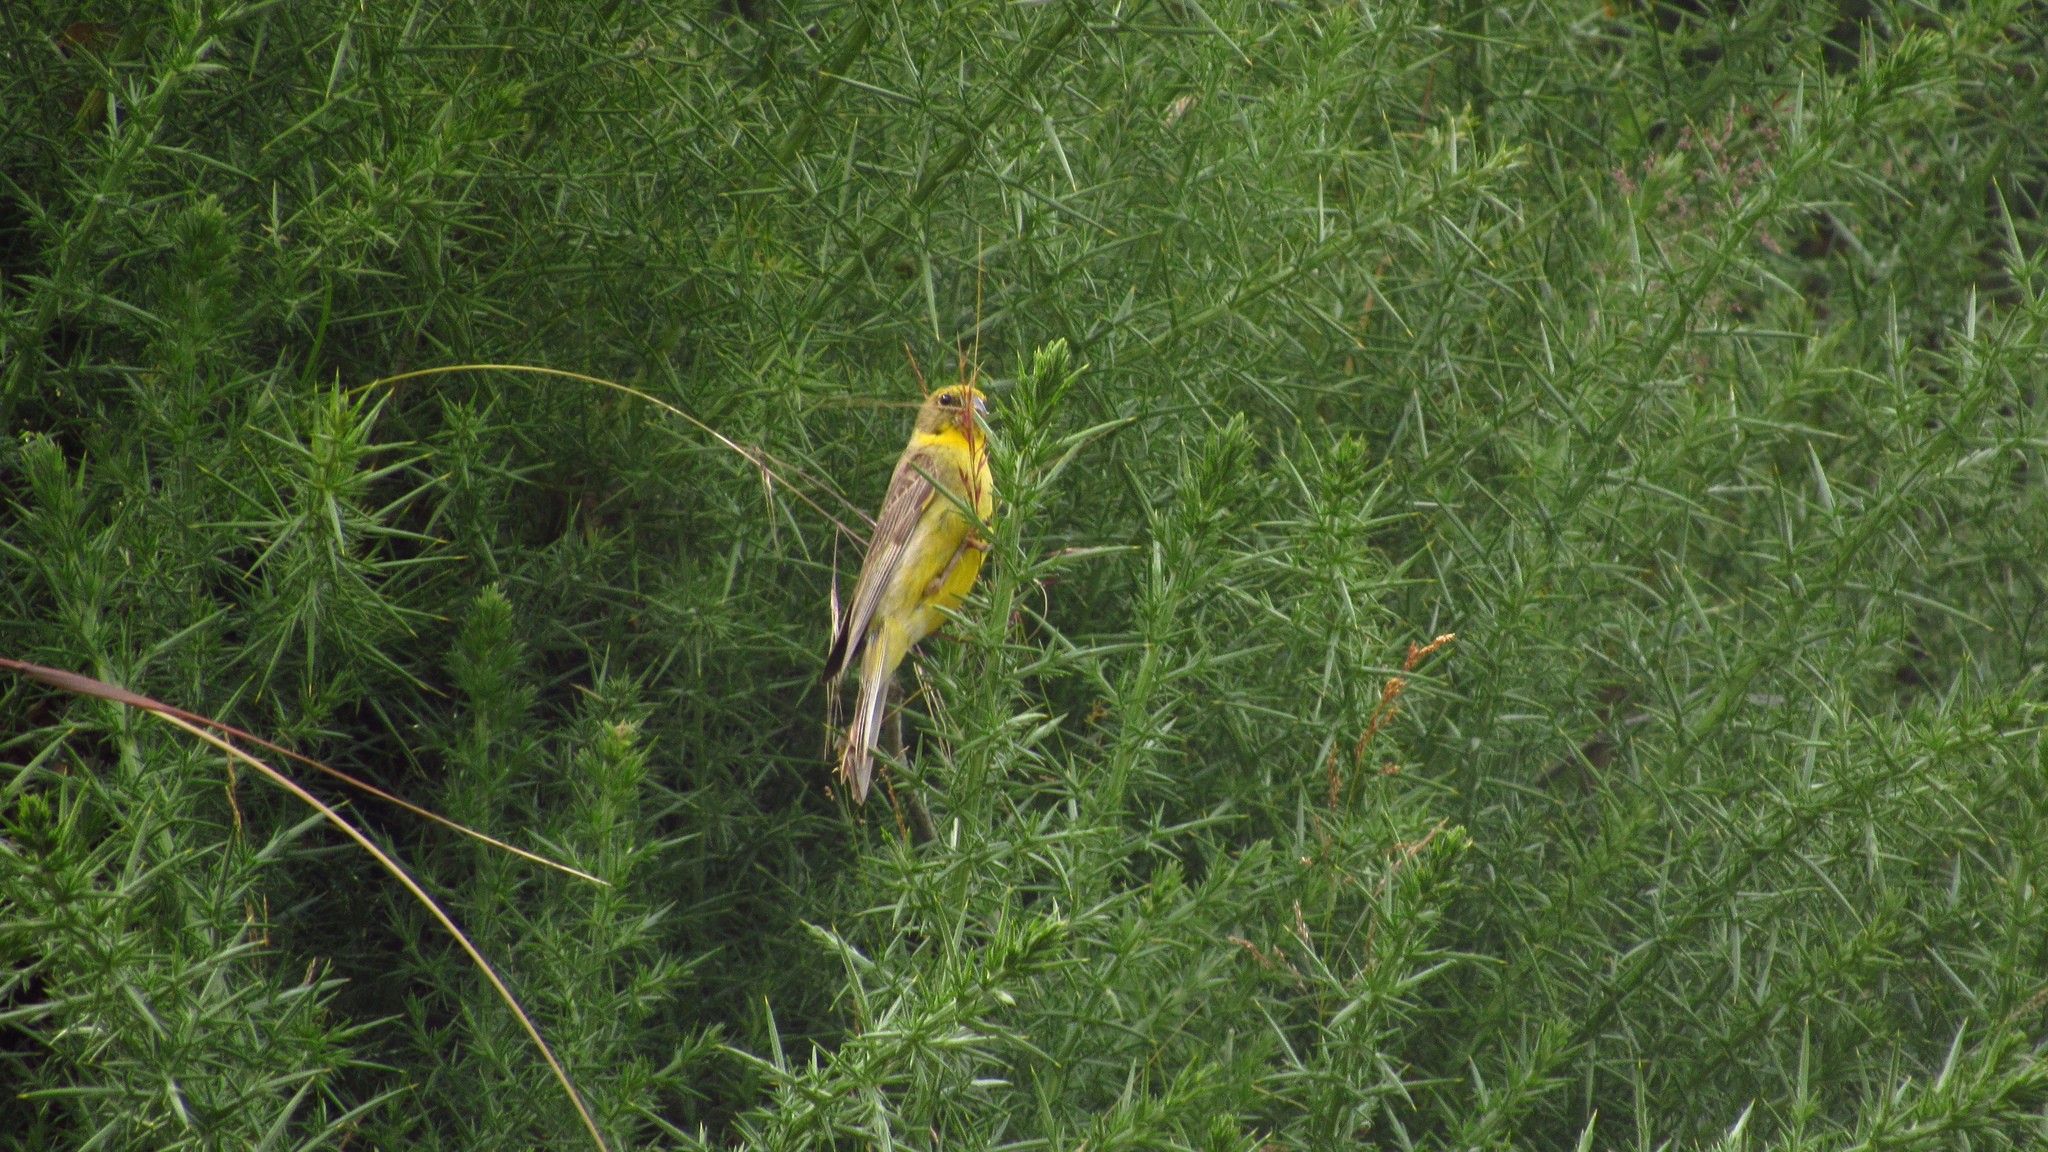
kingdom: Animalia
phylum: Chordata
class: Aves
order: Passeriformes
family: Thraupidae
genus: Sicalis
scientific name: Sicalis luteola
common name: Grassland yellow-finch
